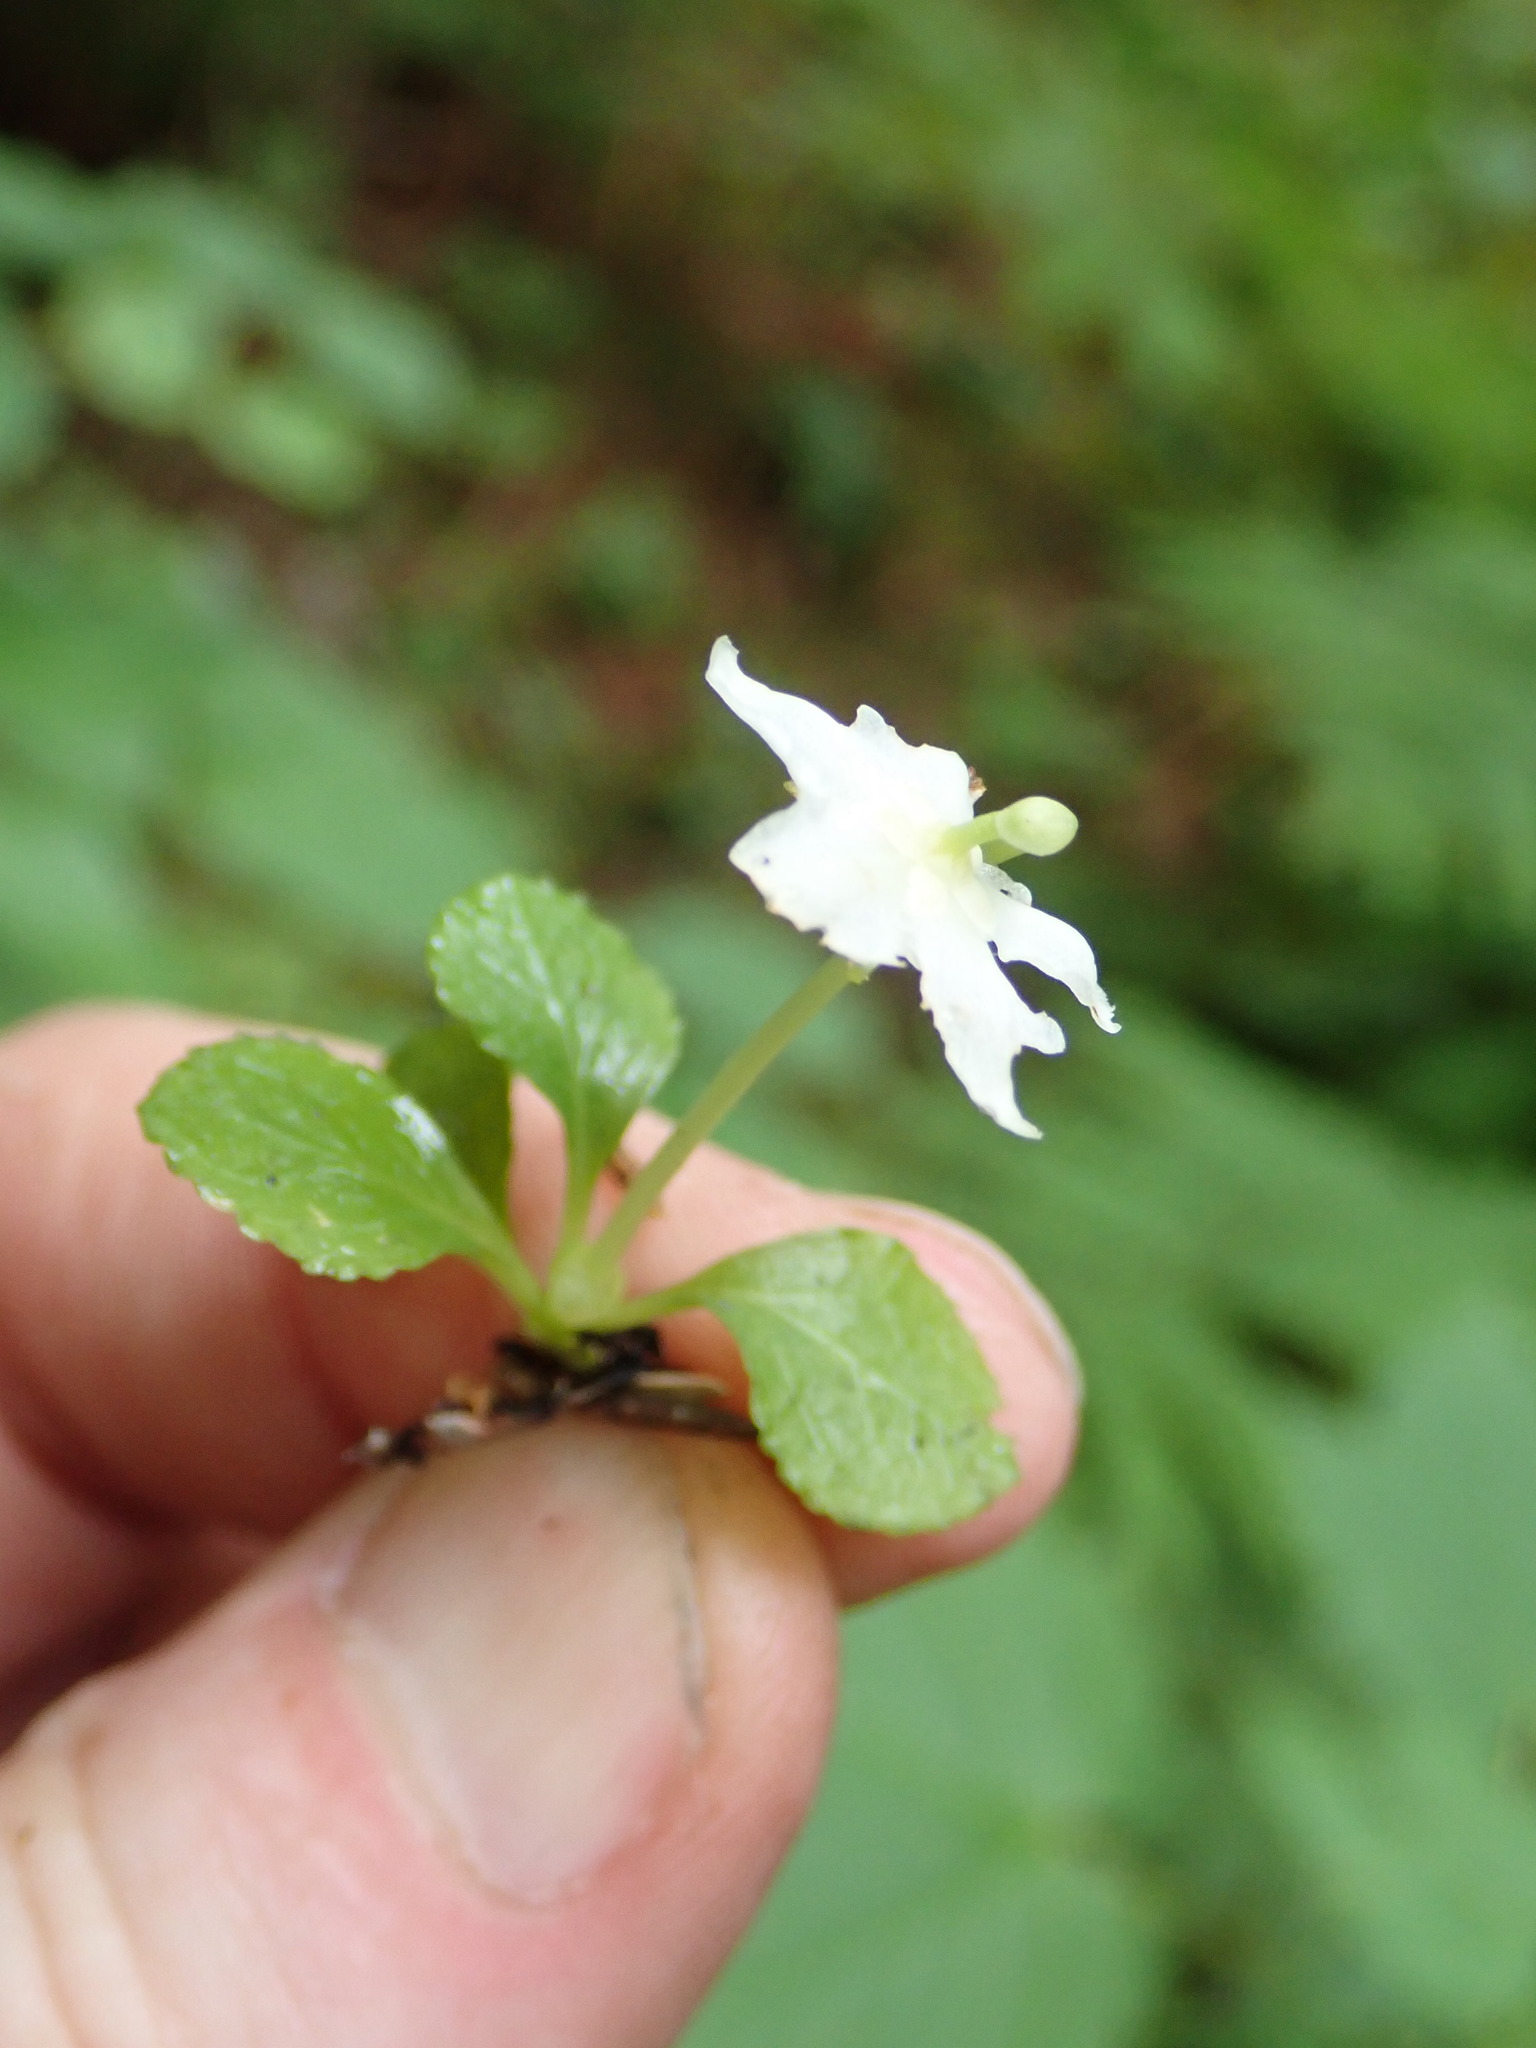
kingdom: Plantae
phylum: Tracheophyta
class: Magnoliopsida
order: Ericales
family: Ericaceae
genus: Moneses
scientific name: Moneses uniflora
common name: One-flowered wintergreen
